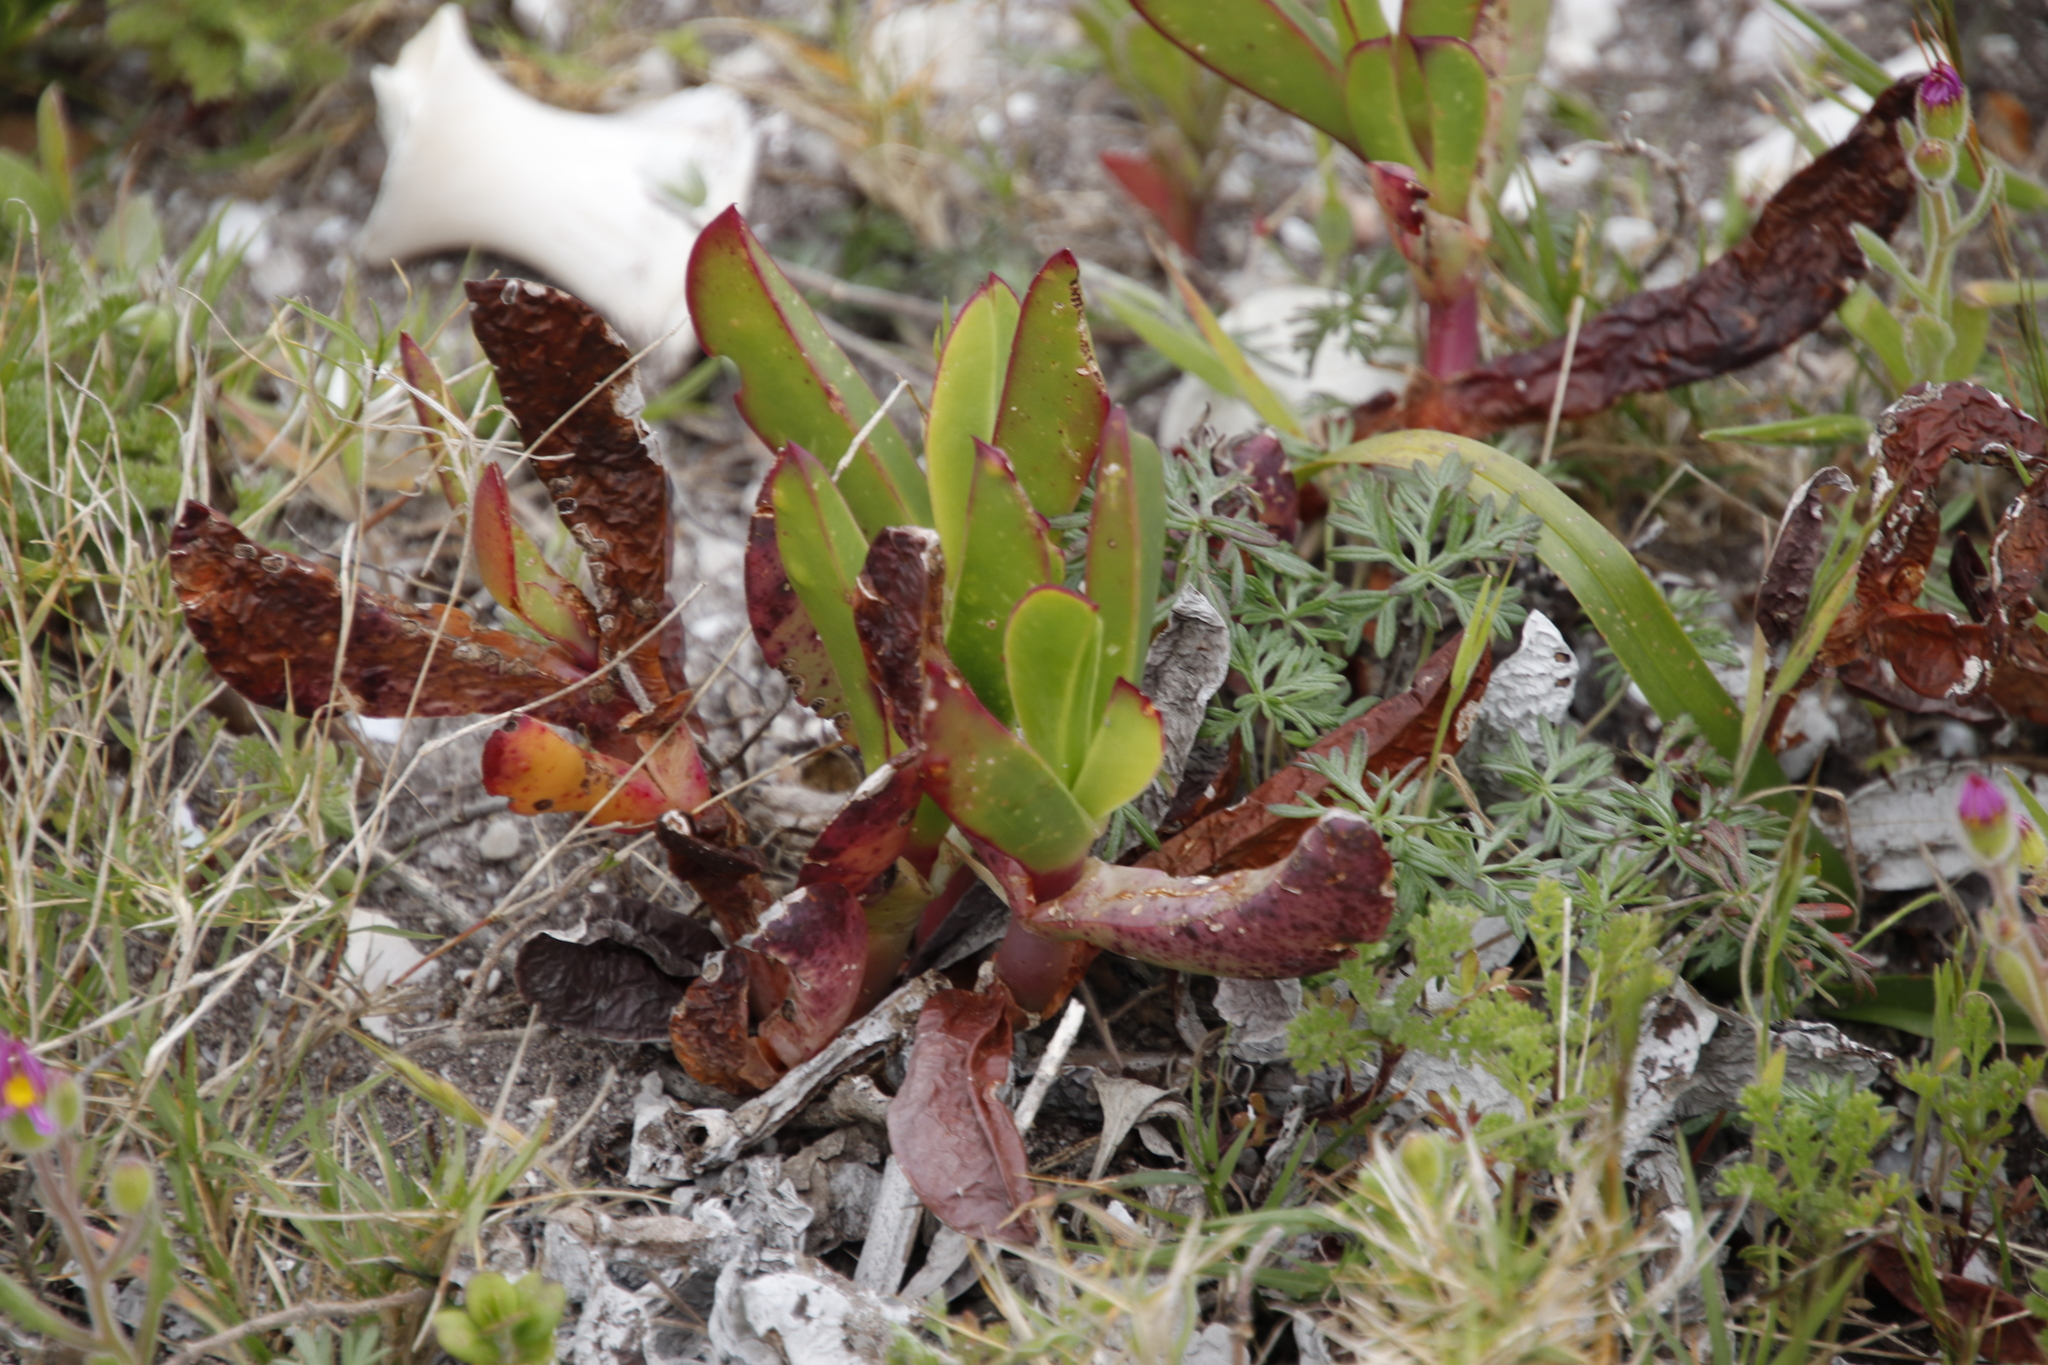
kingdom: Plantae
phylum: Tracheophyta
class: Magnoliopsida
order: Caryophyllales
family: Aizoaceae
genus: Carpobrotus
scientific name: Carpobrotus acinaciformis
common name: Sally-my-handsome
